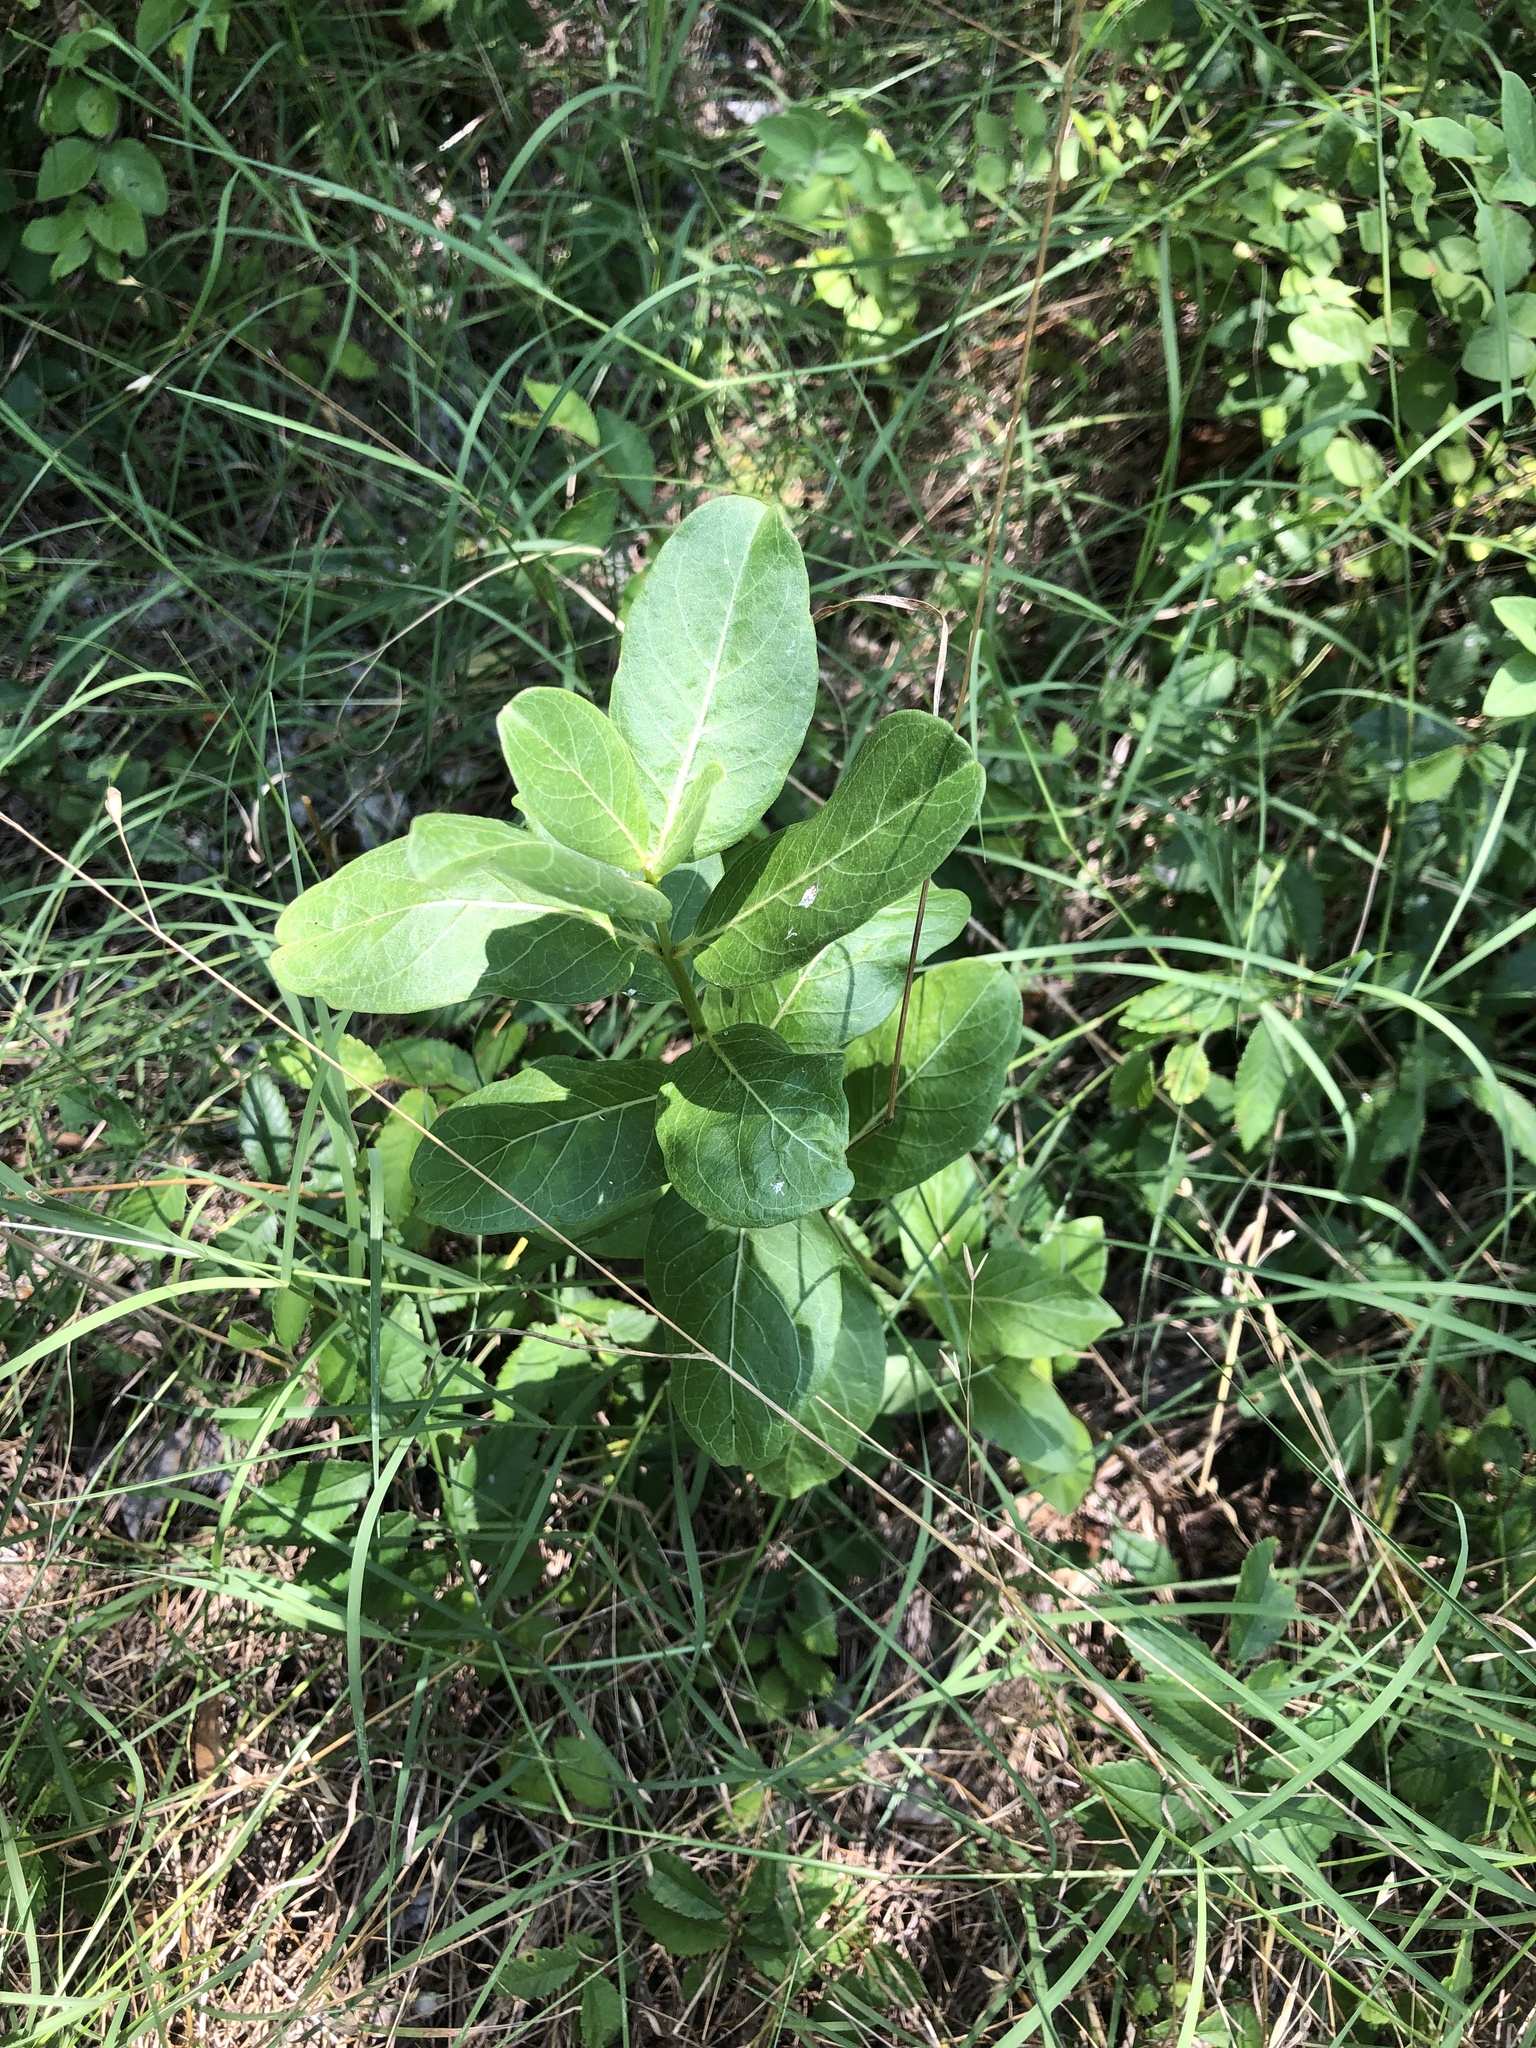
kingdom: Plantae
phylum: Tracheophyta
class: Magnoliopsida
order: Gentianales
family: Apocynaceae
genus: Asclepias
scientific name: Asclepias viridis
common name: Antelope-horns
